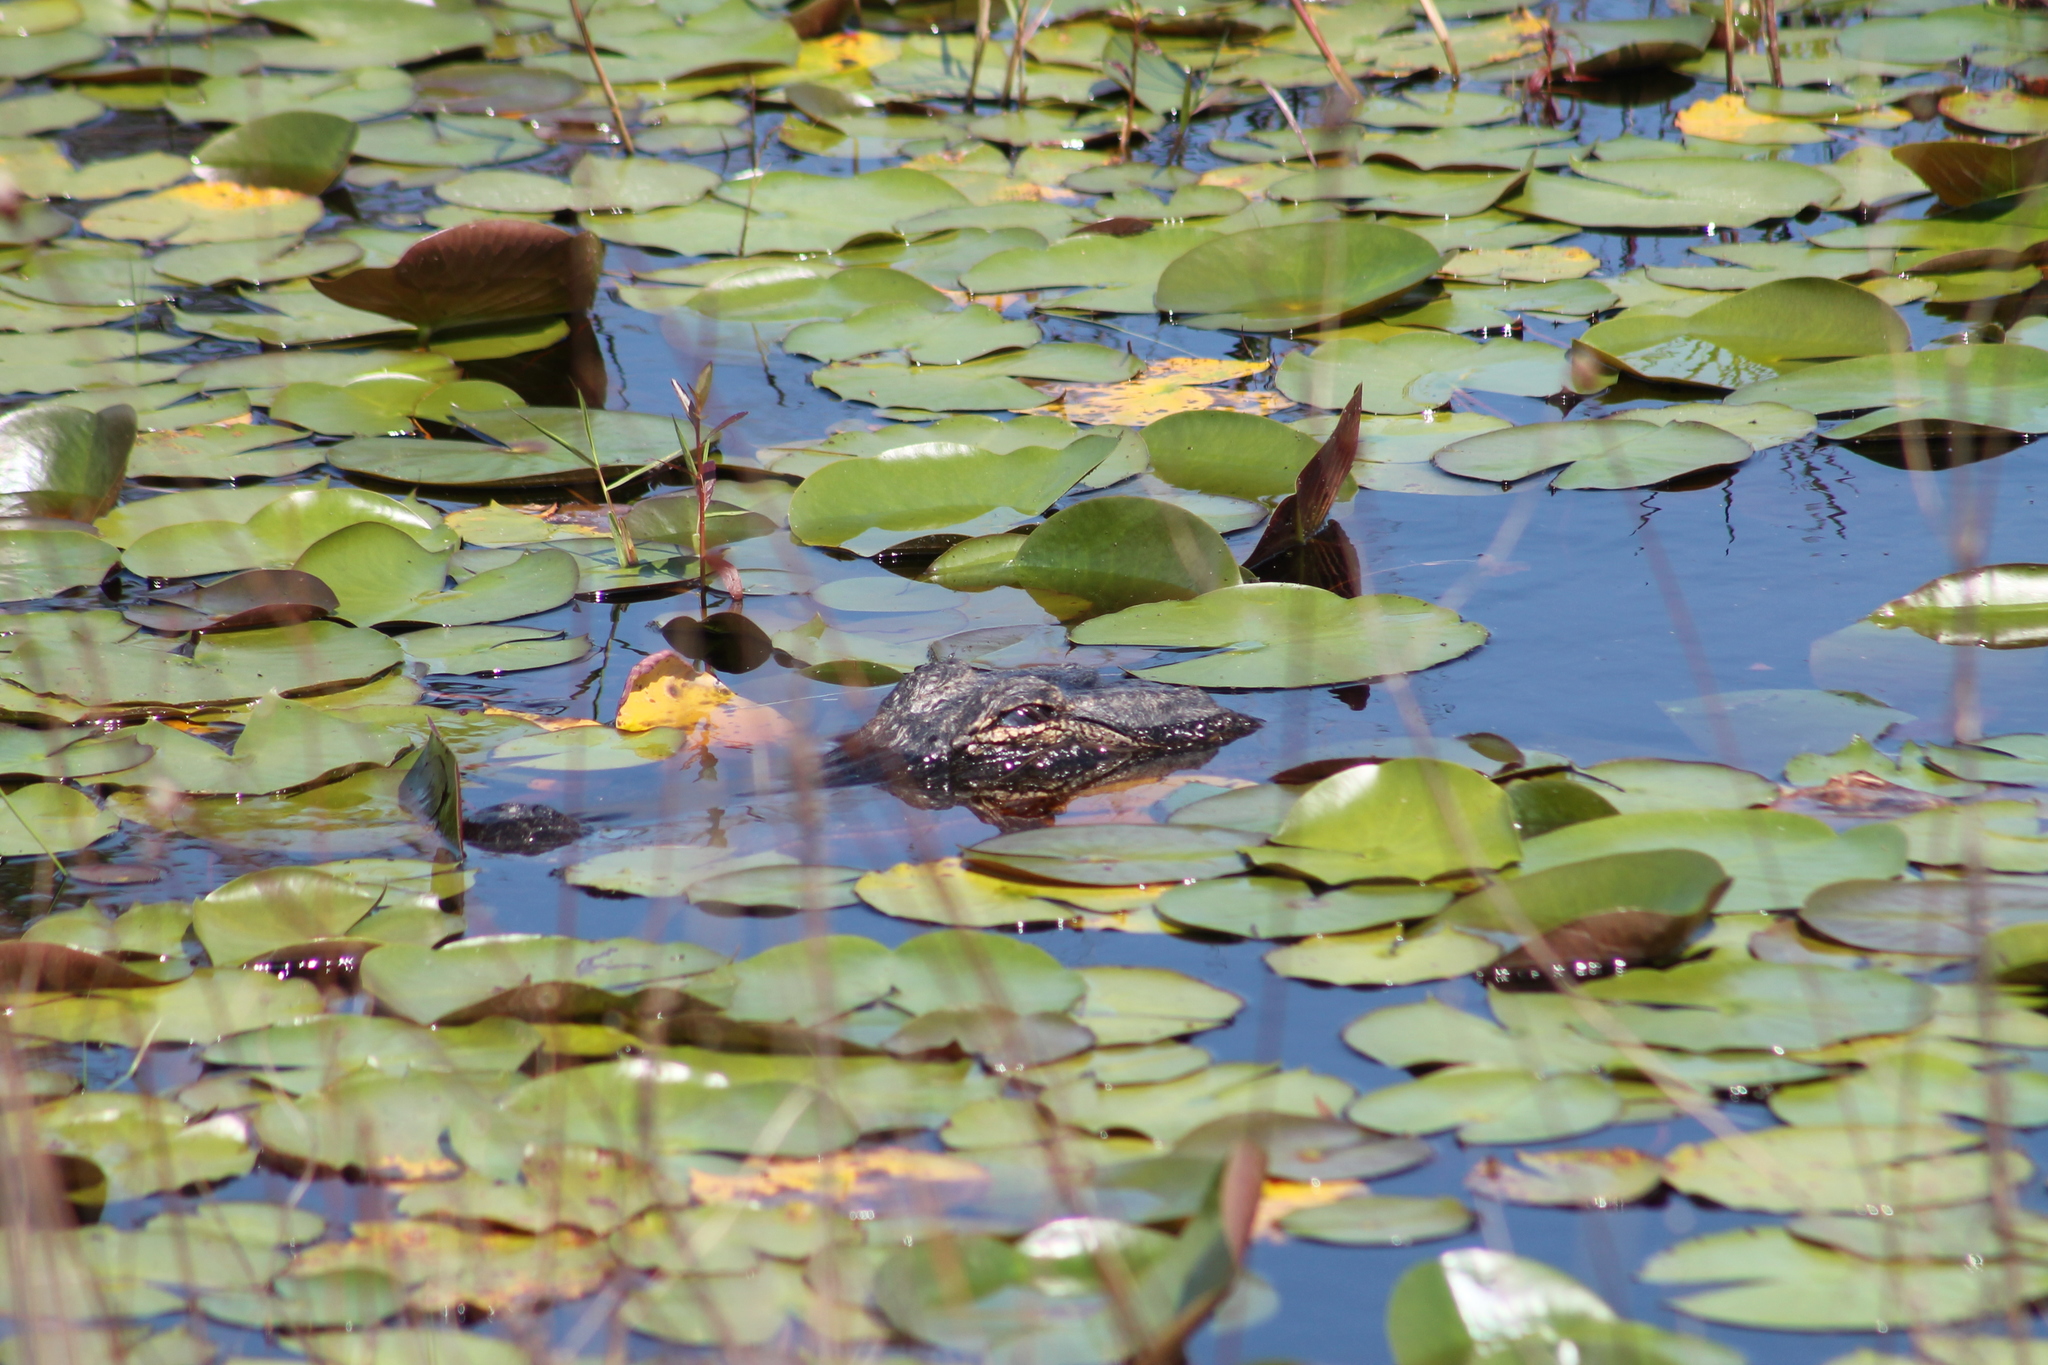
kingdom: Animalia
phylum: Chordata
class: Crocodylia
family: Alligatoridae
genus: Alligator
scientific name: Alligator mississippiensis
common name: American alligator
